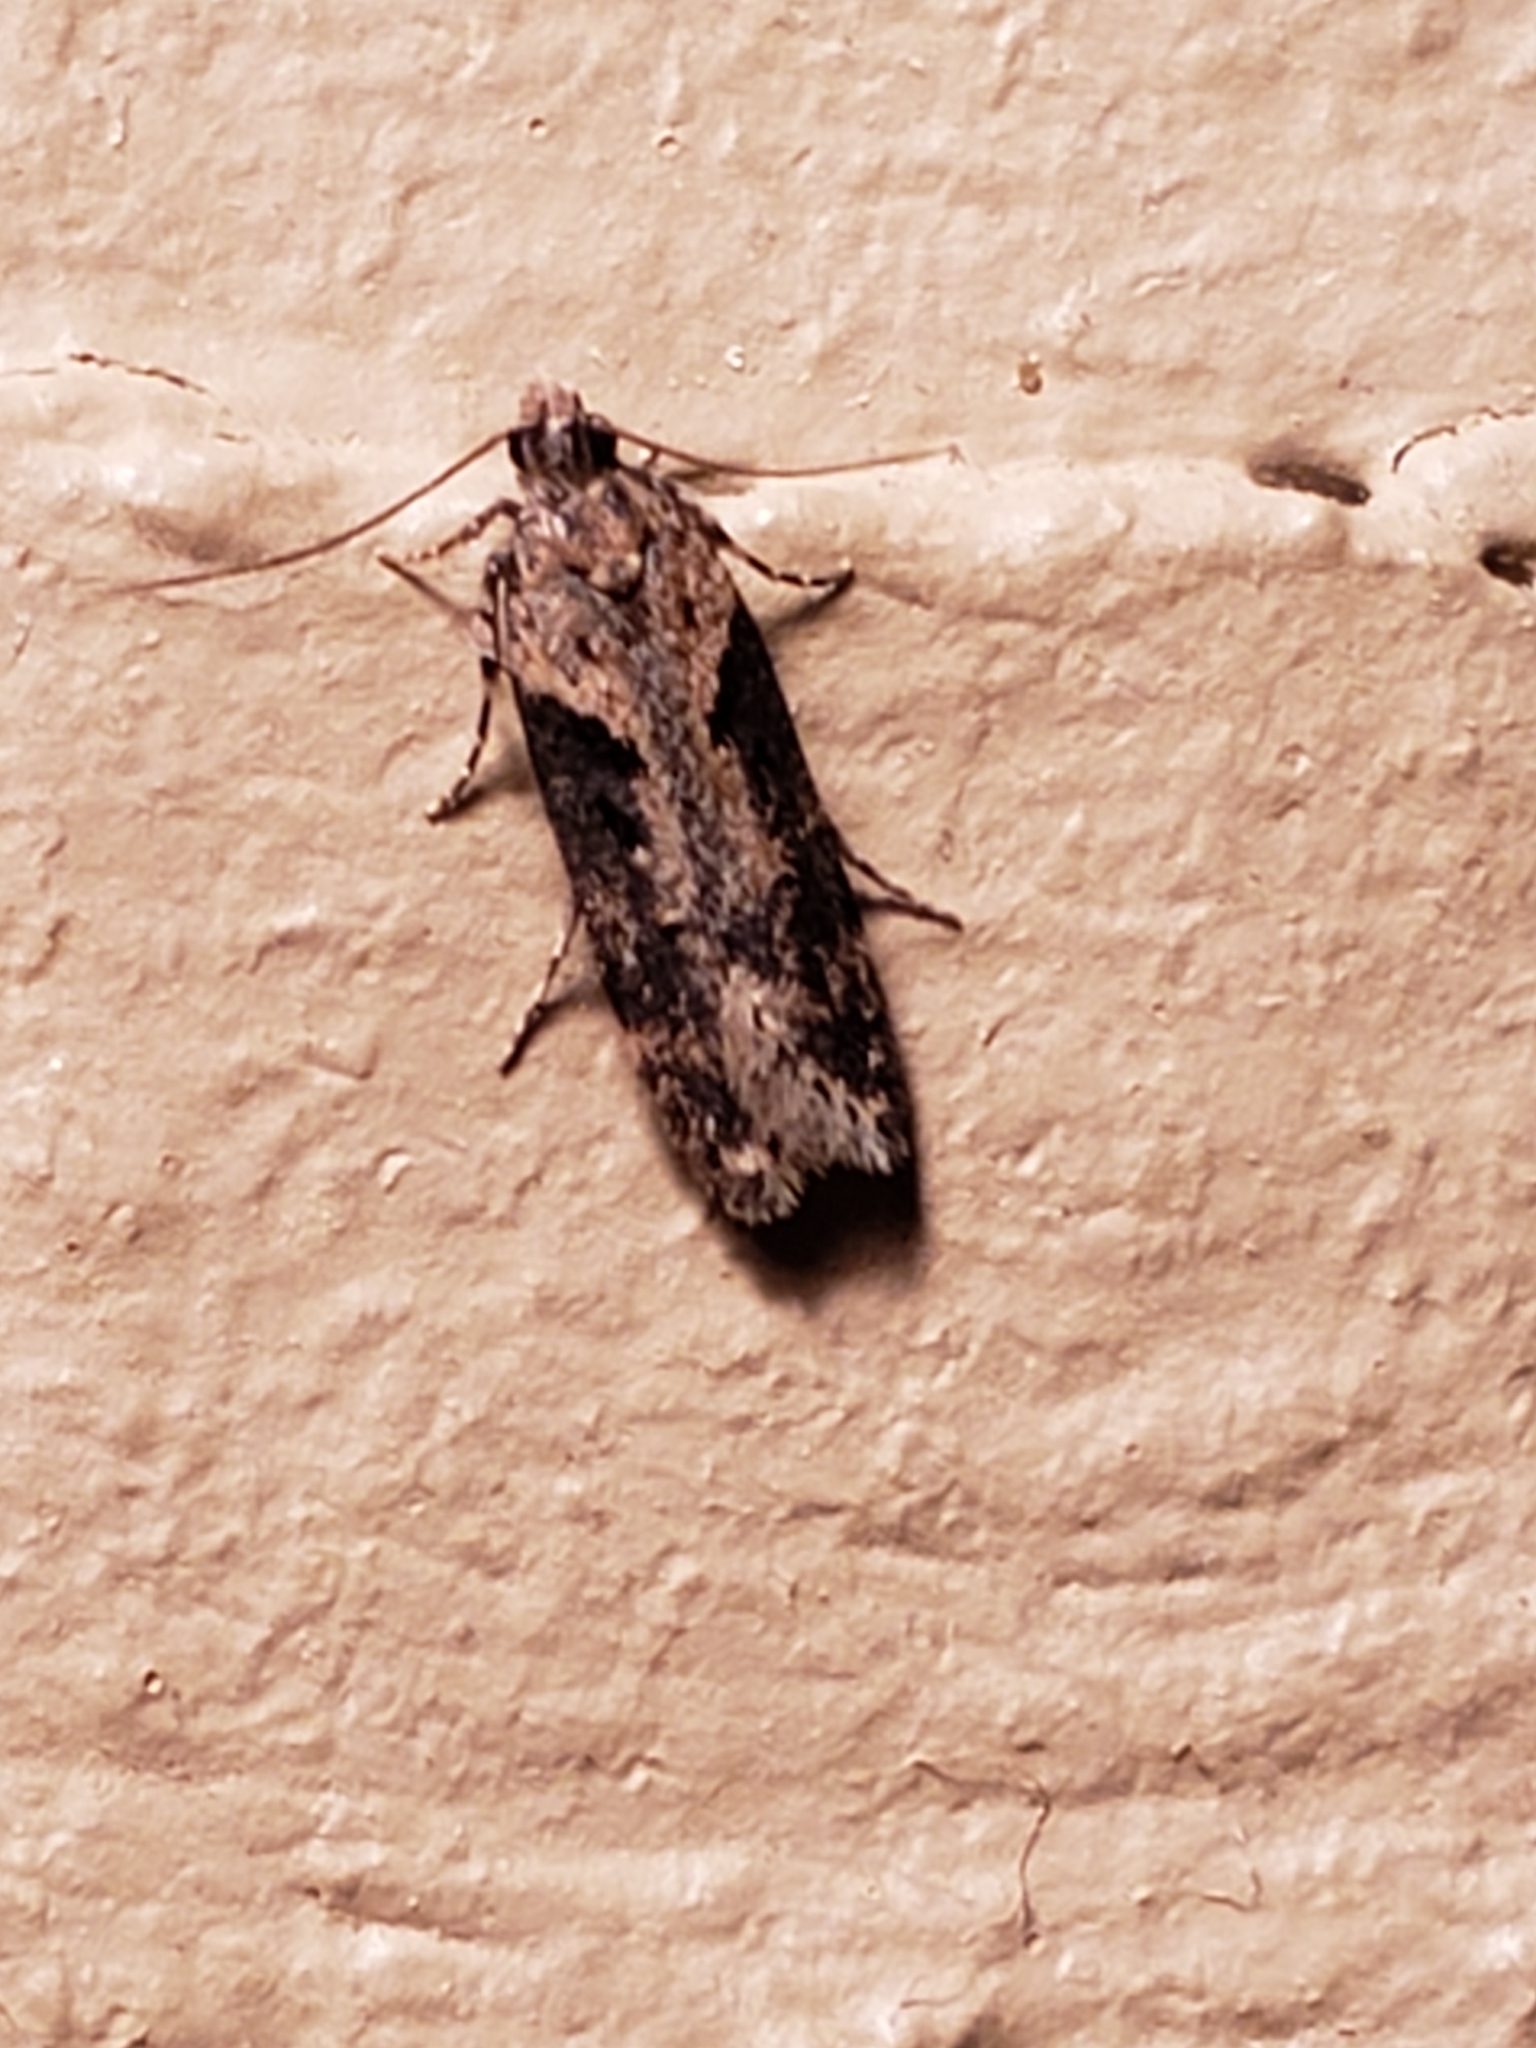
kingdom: Animalia
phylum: Arthropoda
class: Insecta
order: Lepidoptera
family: Gelechiidae
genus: Chionodes
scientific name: Chionodes mediofuscella
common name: Black-smudged chionodes moth
